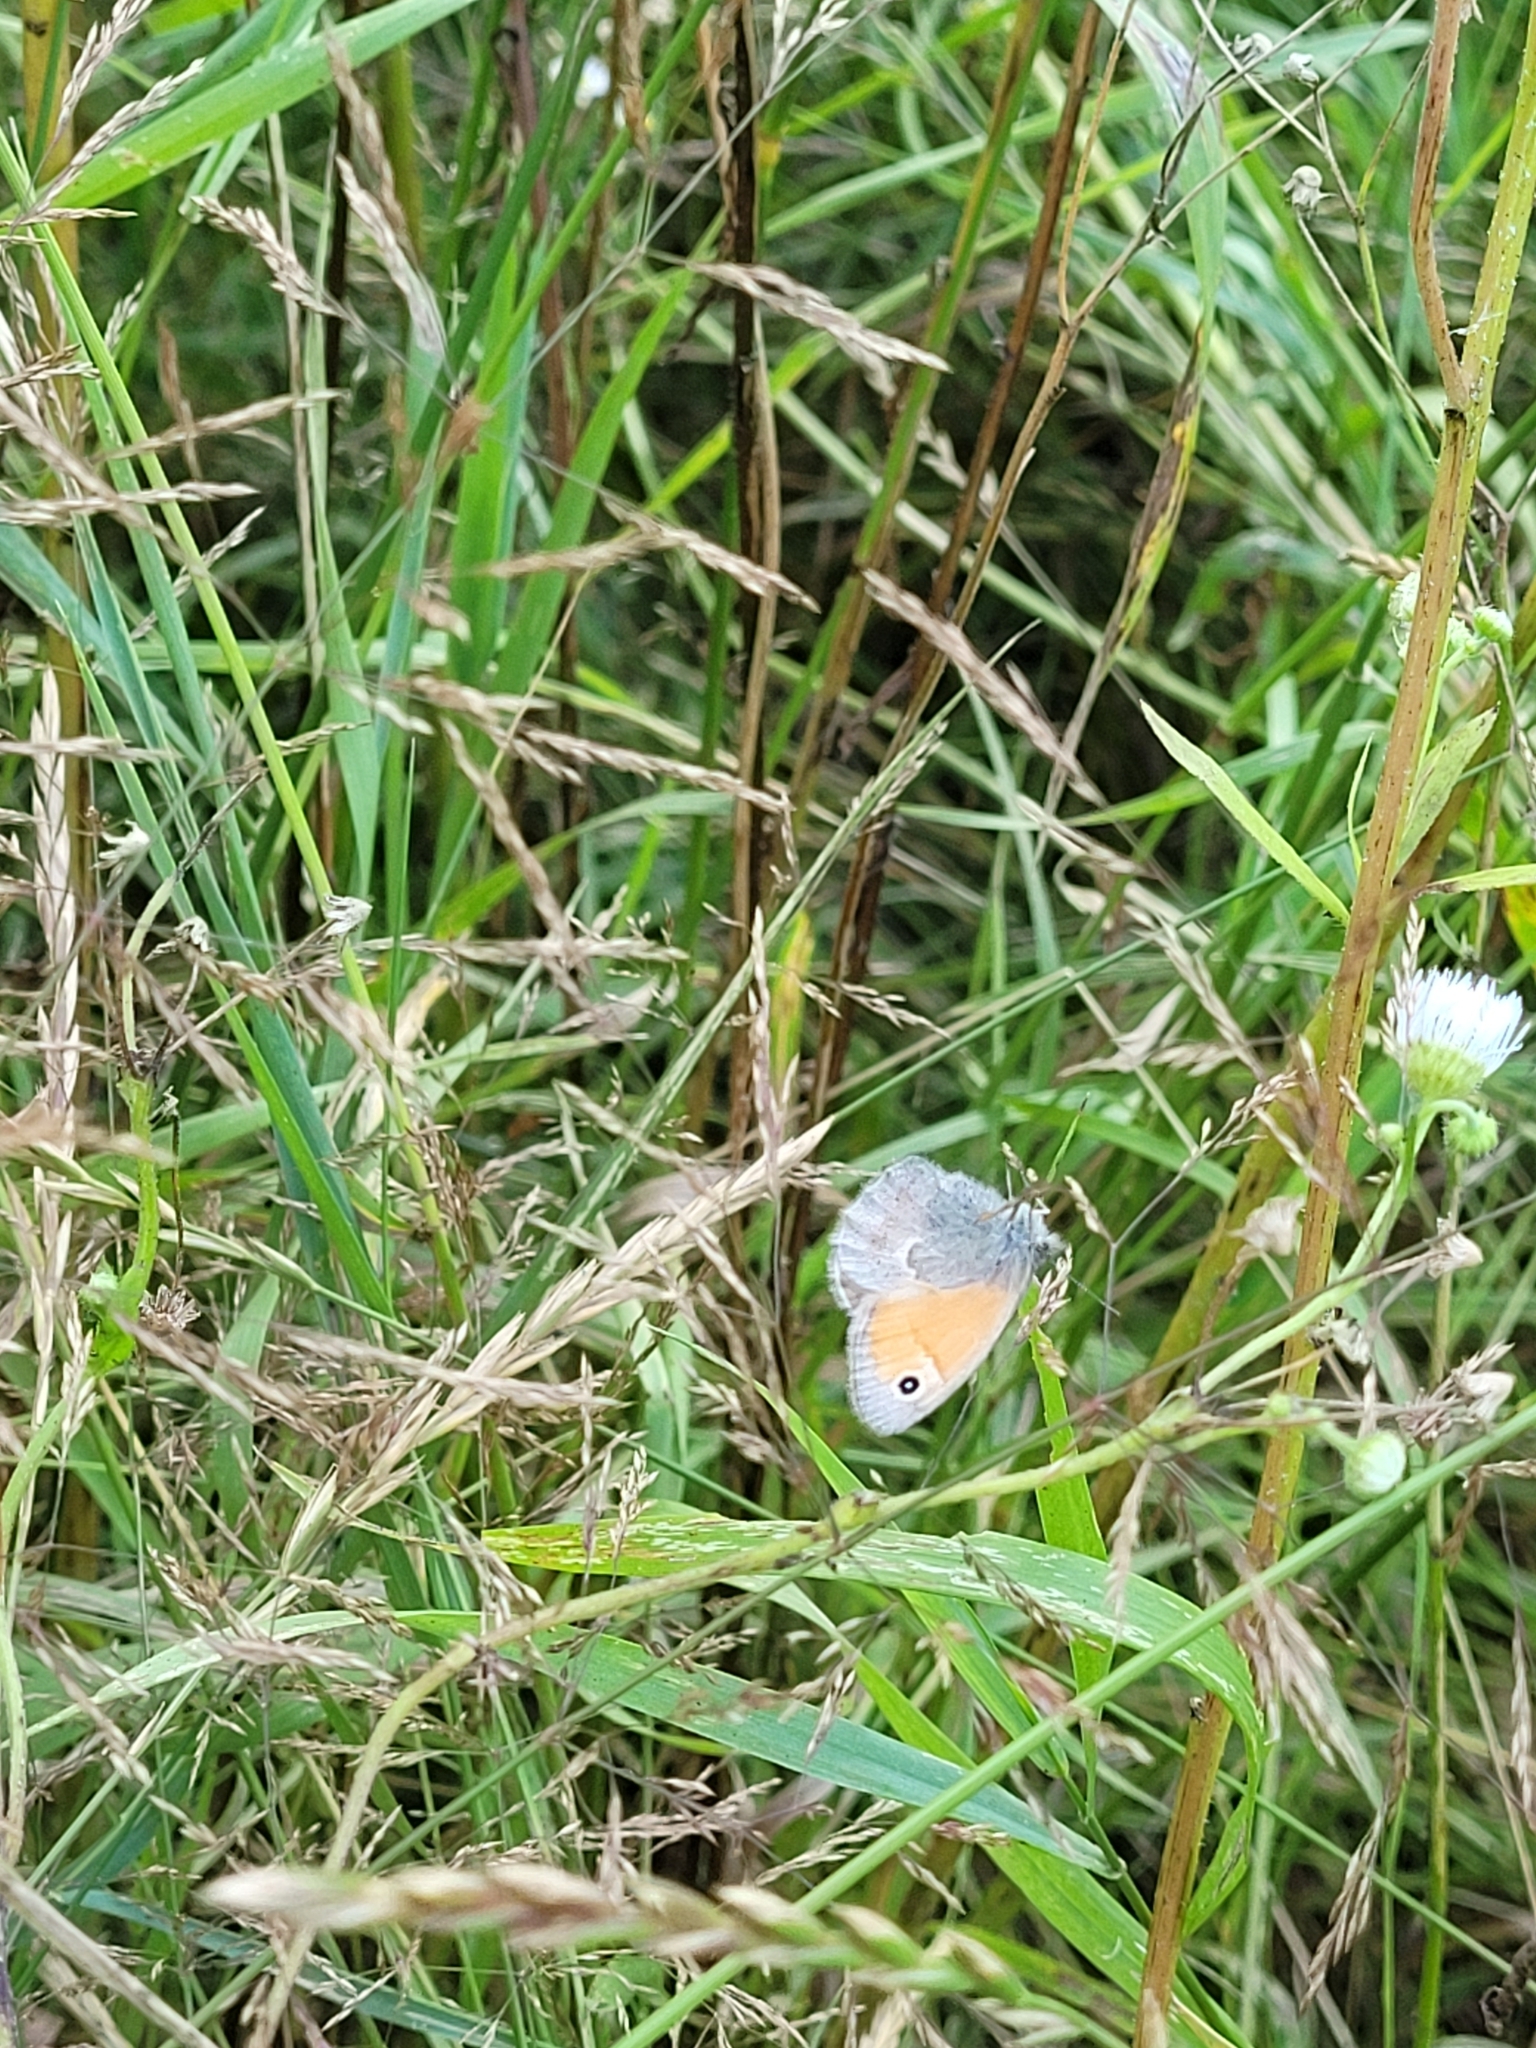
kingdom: Animalia
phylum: Arthropoda
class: Insecta
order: Lepidoptera
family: Nymphalidae
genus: Coenonympha
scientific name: Coenonympha pamphilus
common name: Small heath
